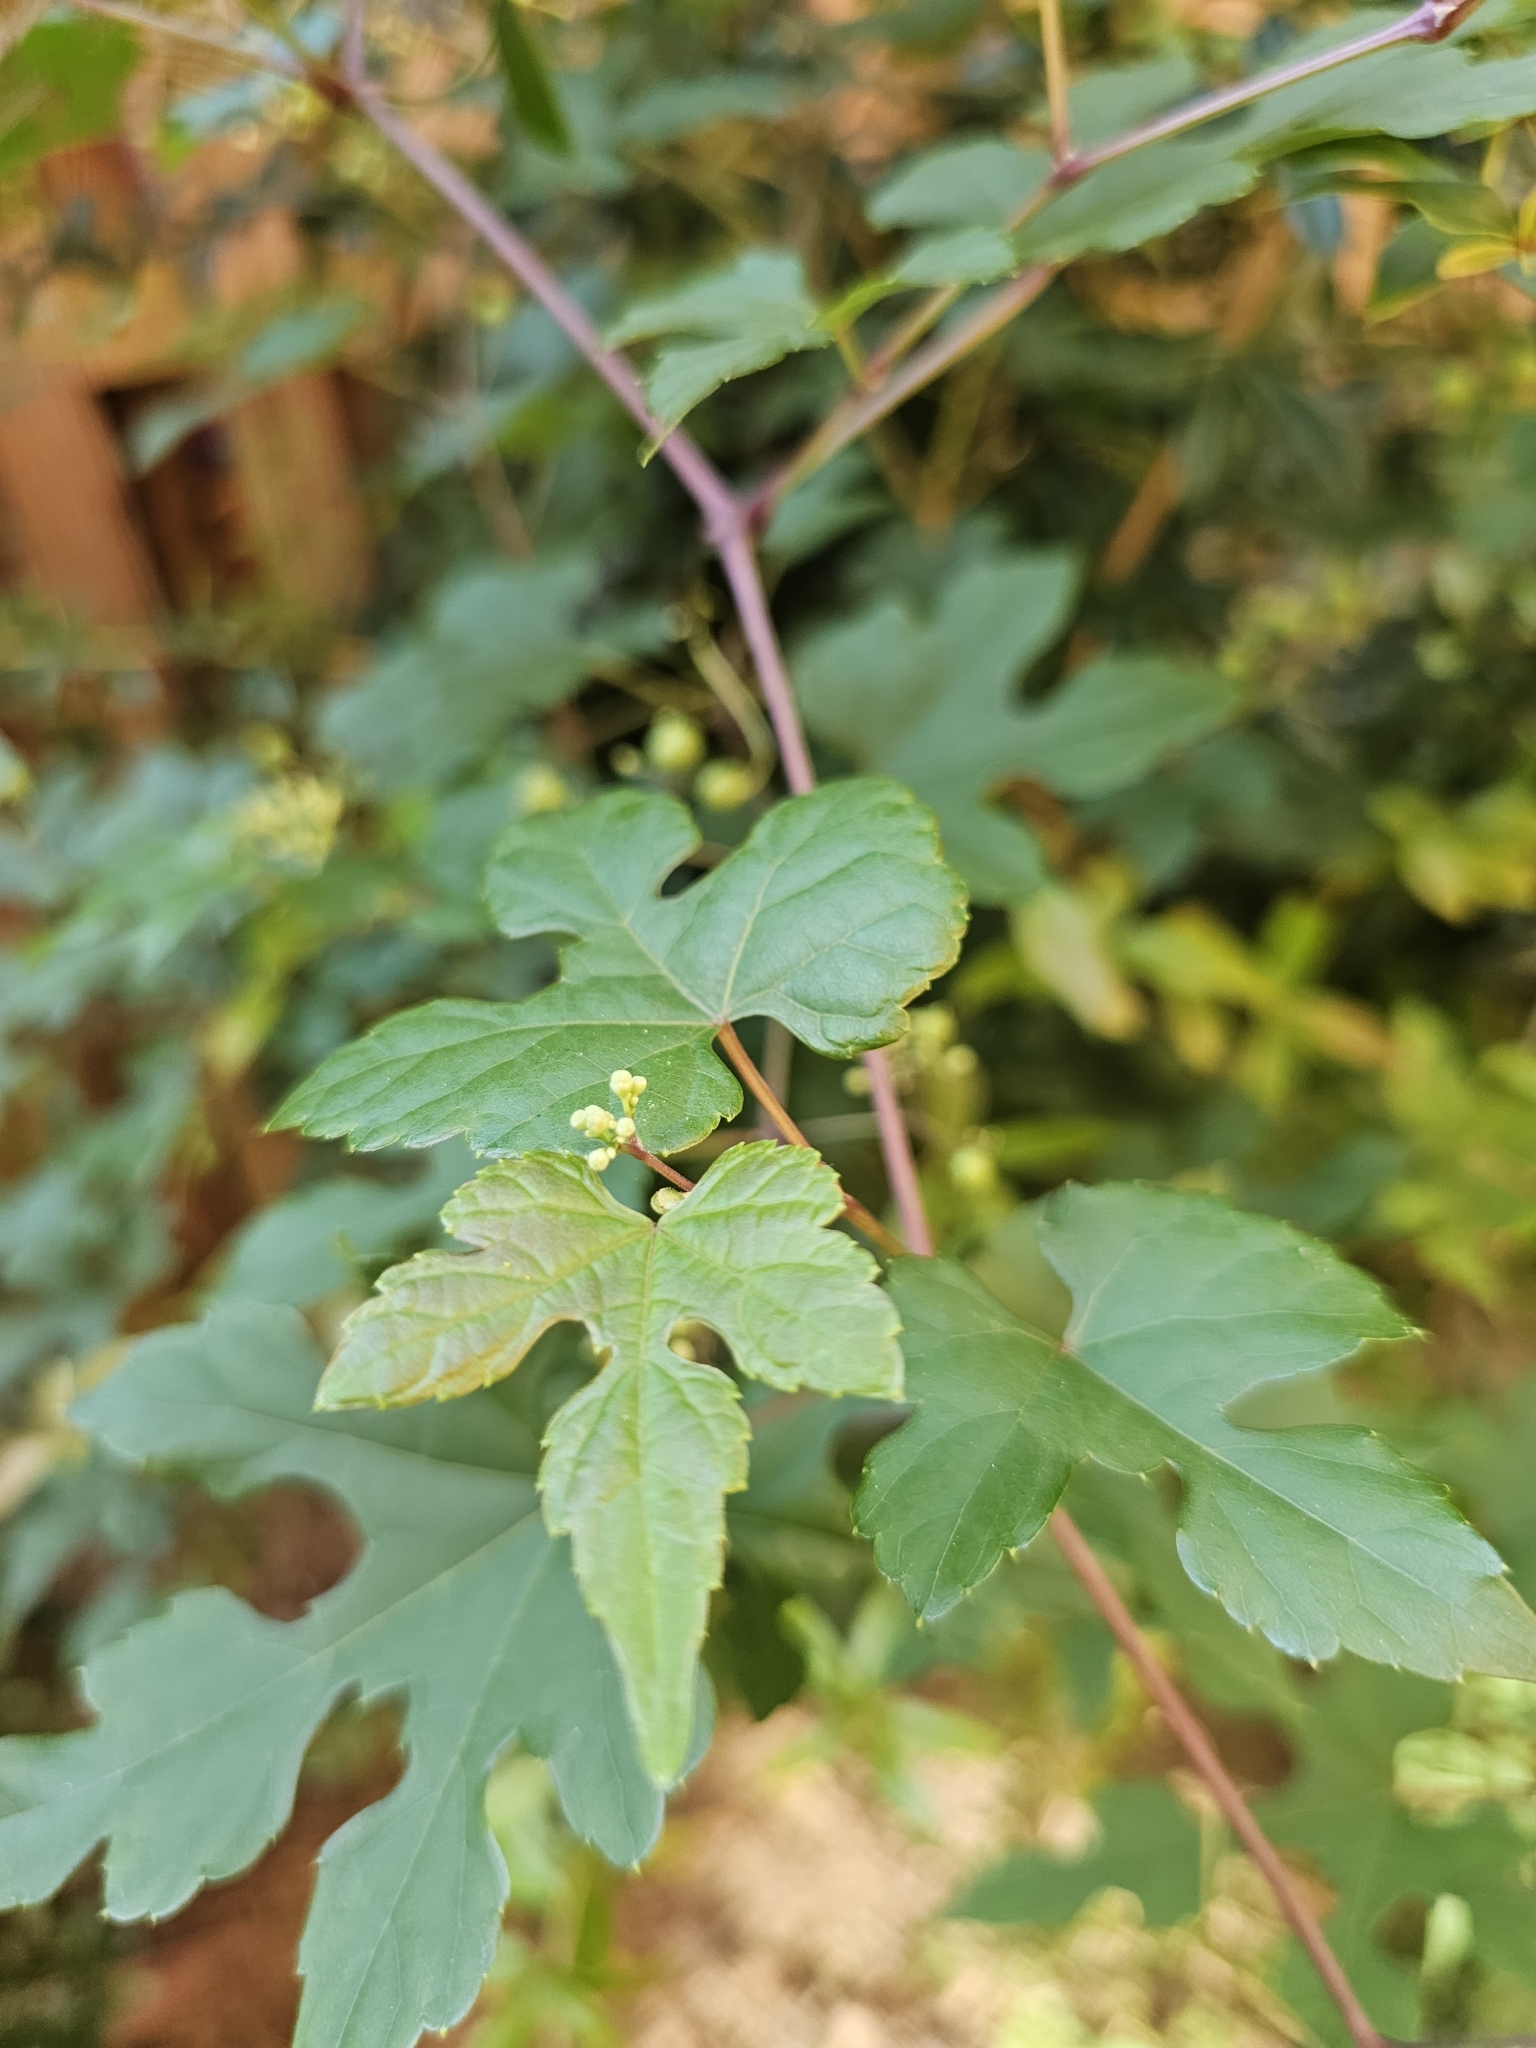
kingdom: Plantae
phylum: Tracheophyta
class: Magnoliopsida
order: Vitales
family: Vitaceae
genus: Ampelopsis
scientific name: Ampelopsis glandulosa
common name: Amur peppervine
